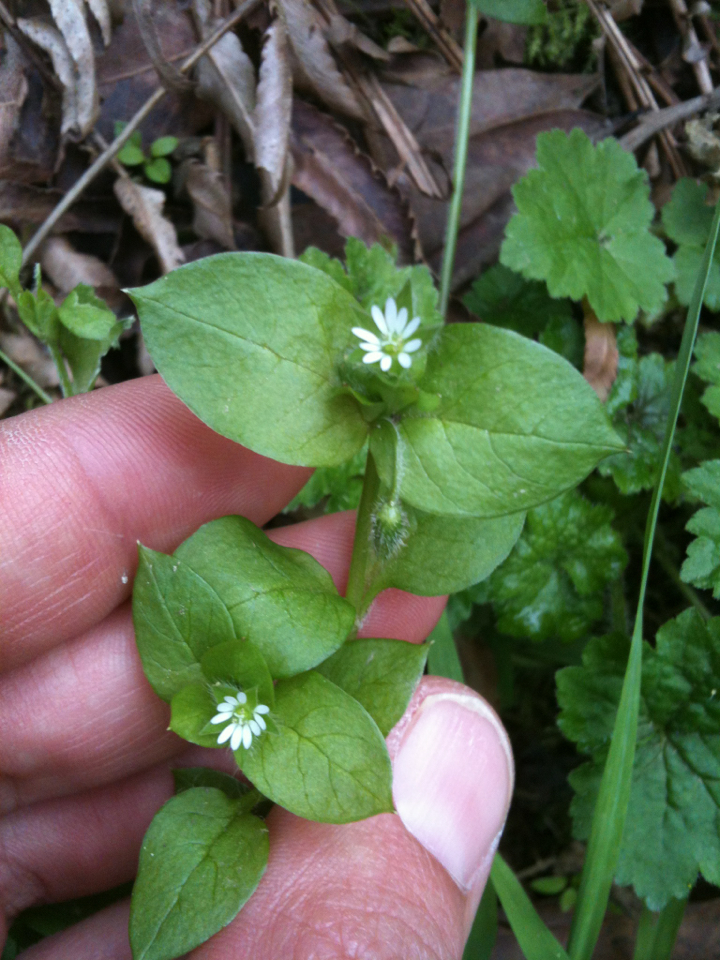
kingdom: Plantae
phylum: Tracheophyta
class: Magnoliopsida
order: Caryophyllales
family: Caryophyllaceae
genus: Stellaria
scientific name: Stellaria media
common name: Common chickweed
